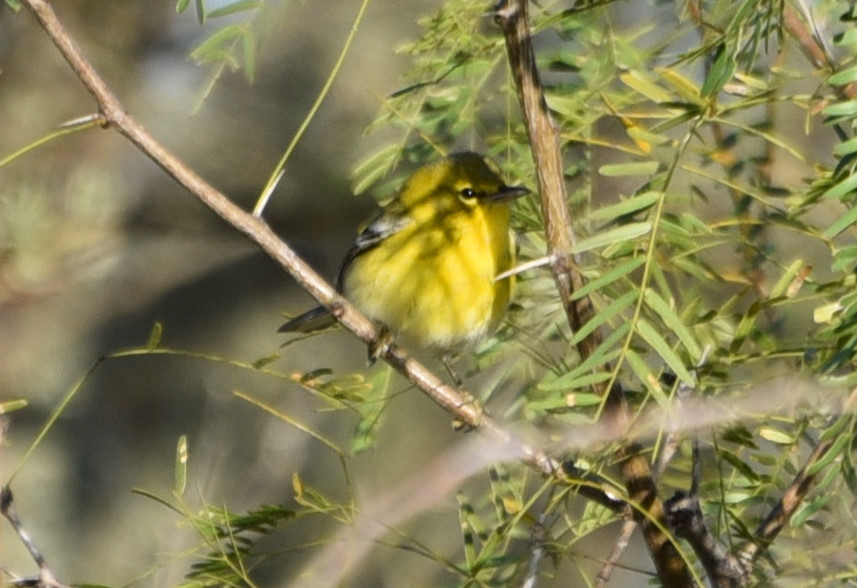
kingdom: Animalia
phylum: Chordata
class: Aves
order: Passeriformes
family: Parulidae
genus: Setophaga
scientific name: Setophaga pinus
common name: Pine warbler
